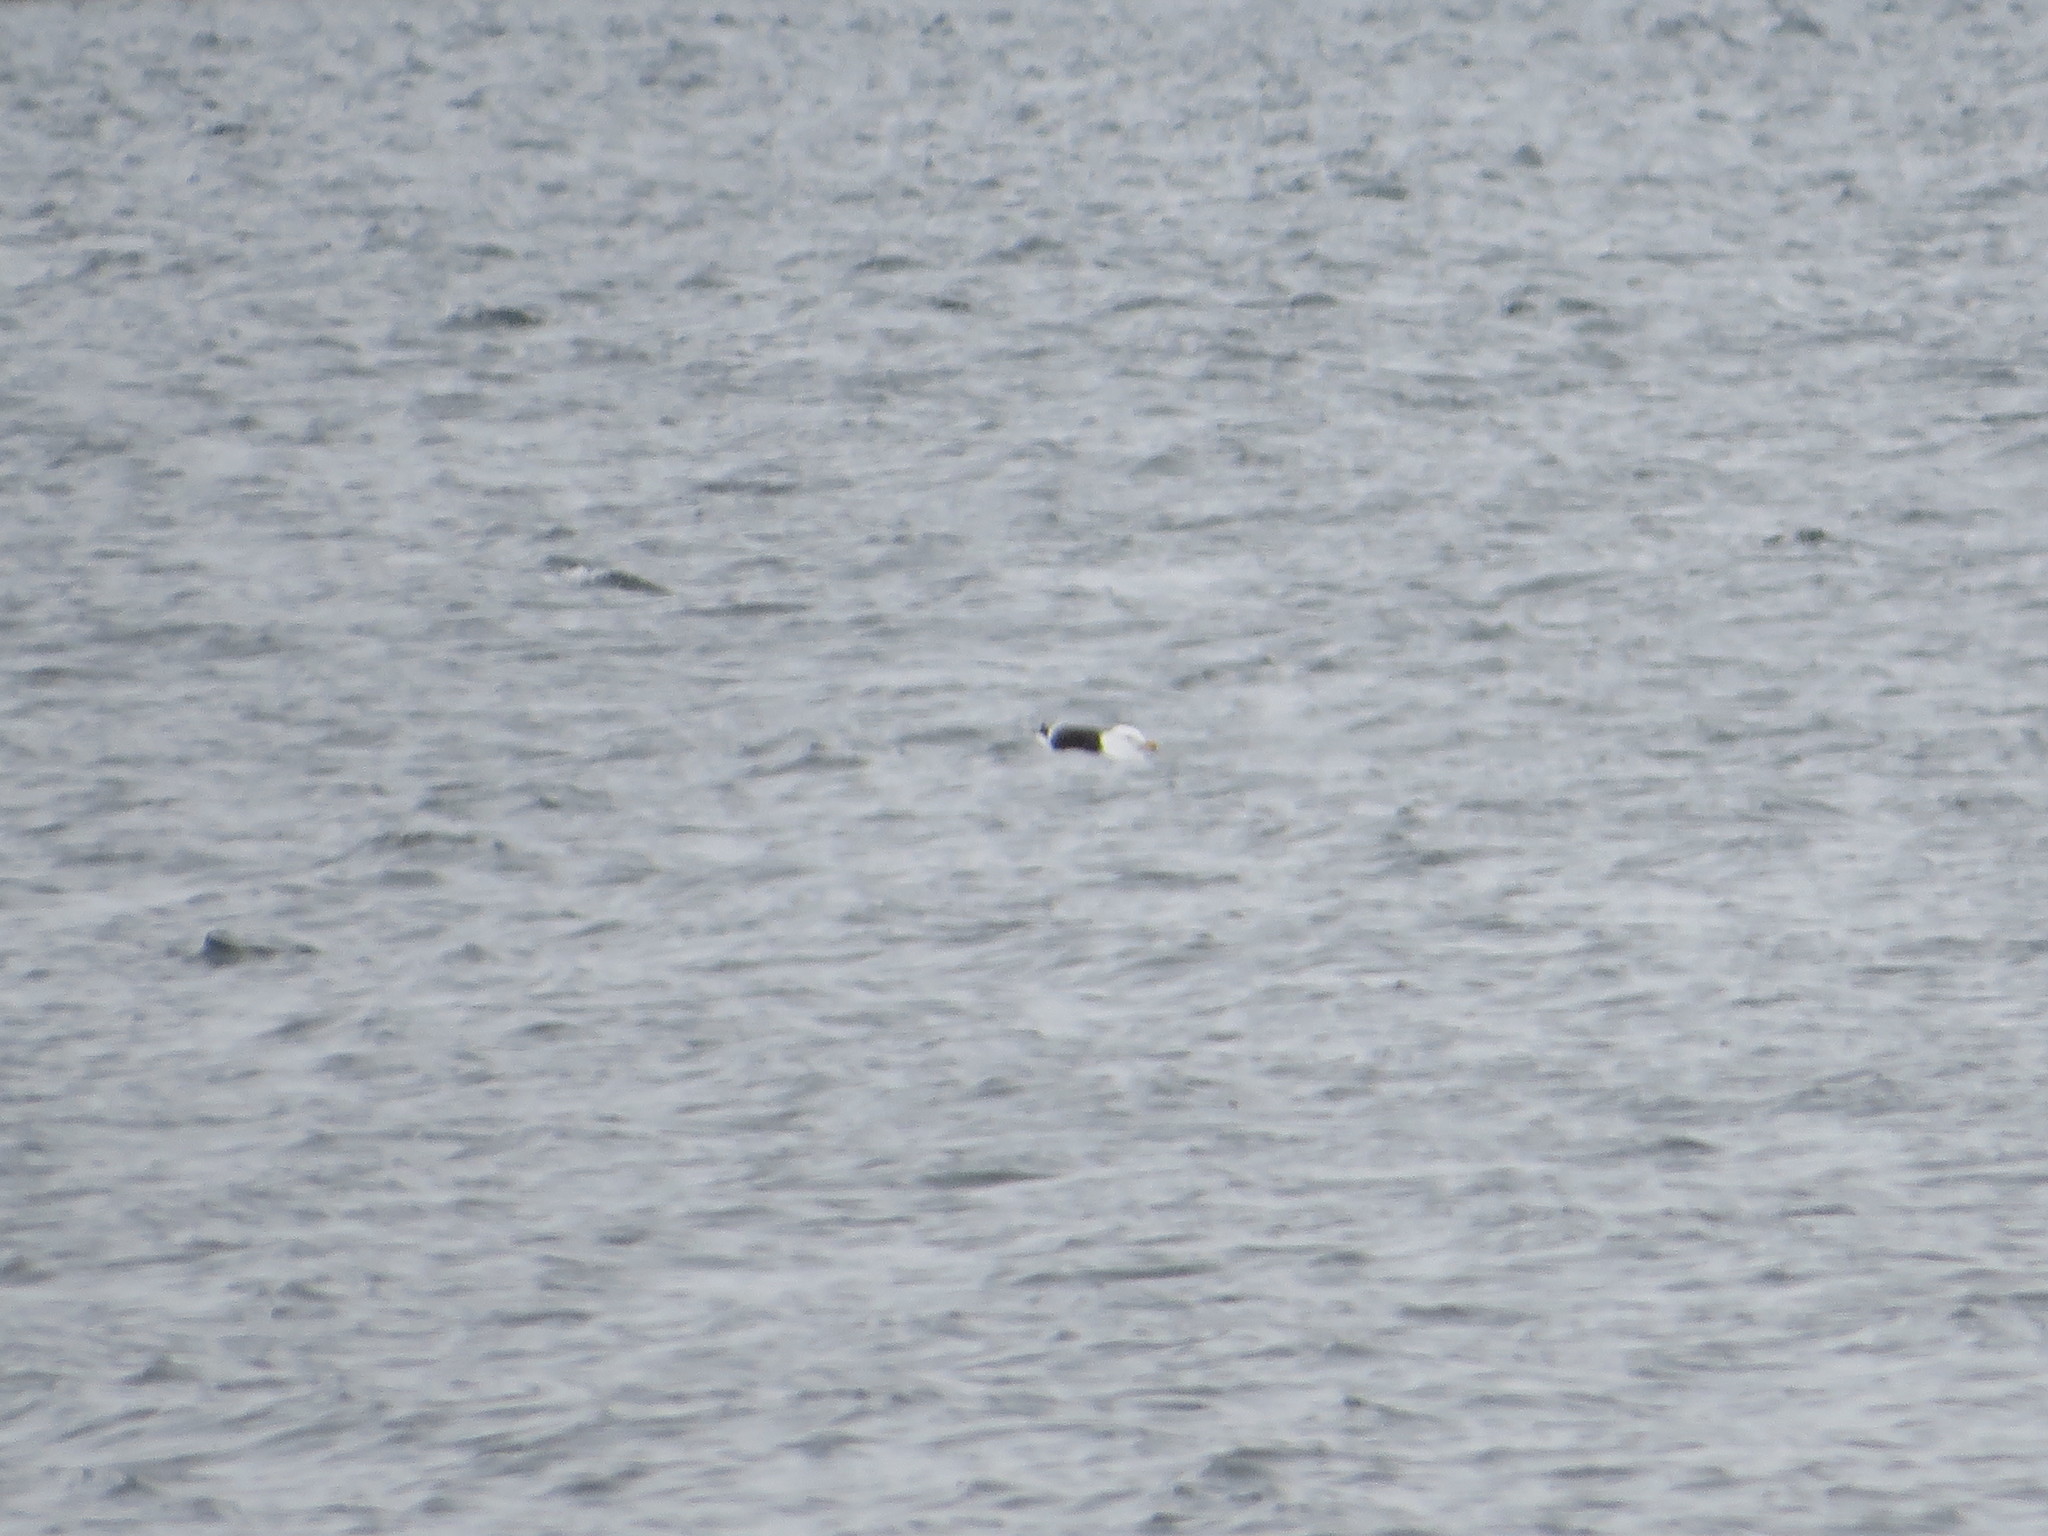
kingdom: Animalia
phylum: Chordata
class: Aves
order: Charadriiformes
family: Laridae
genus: Larus
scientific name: Larus marinus
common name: Great black-backed gull
